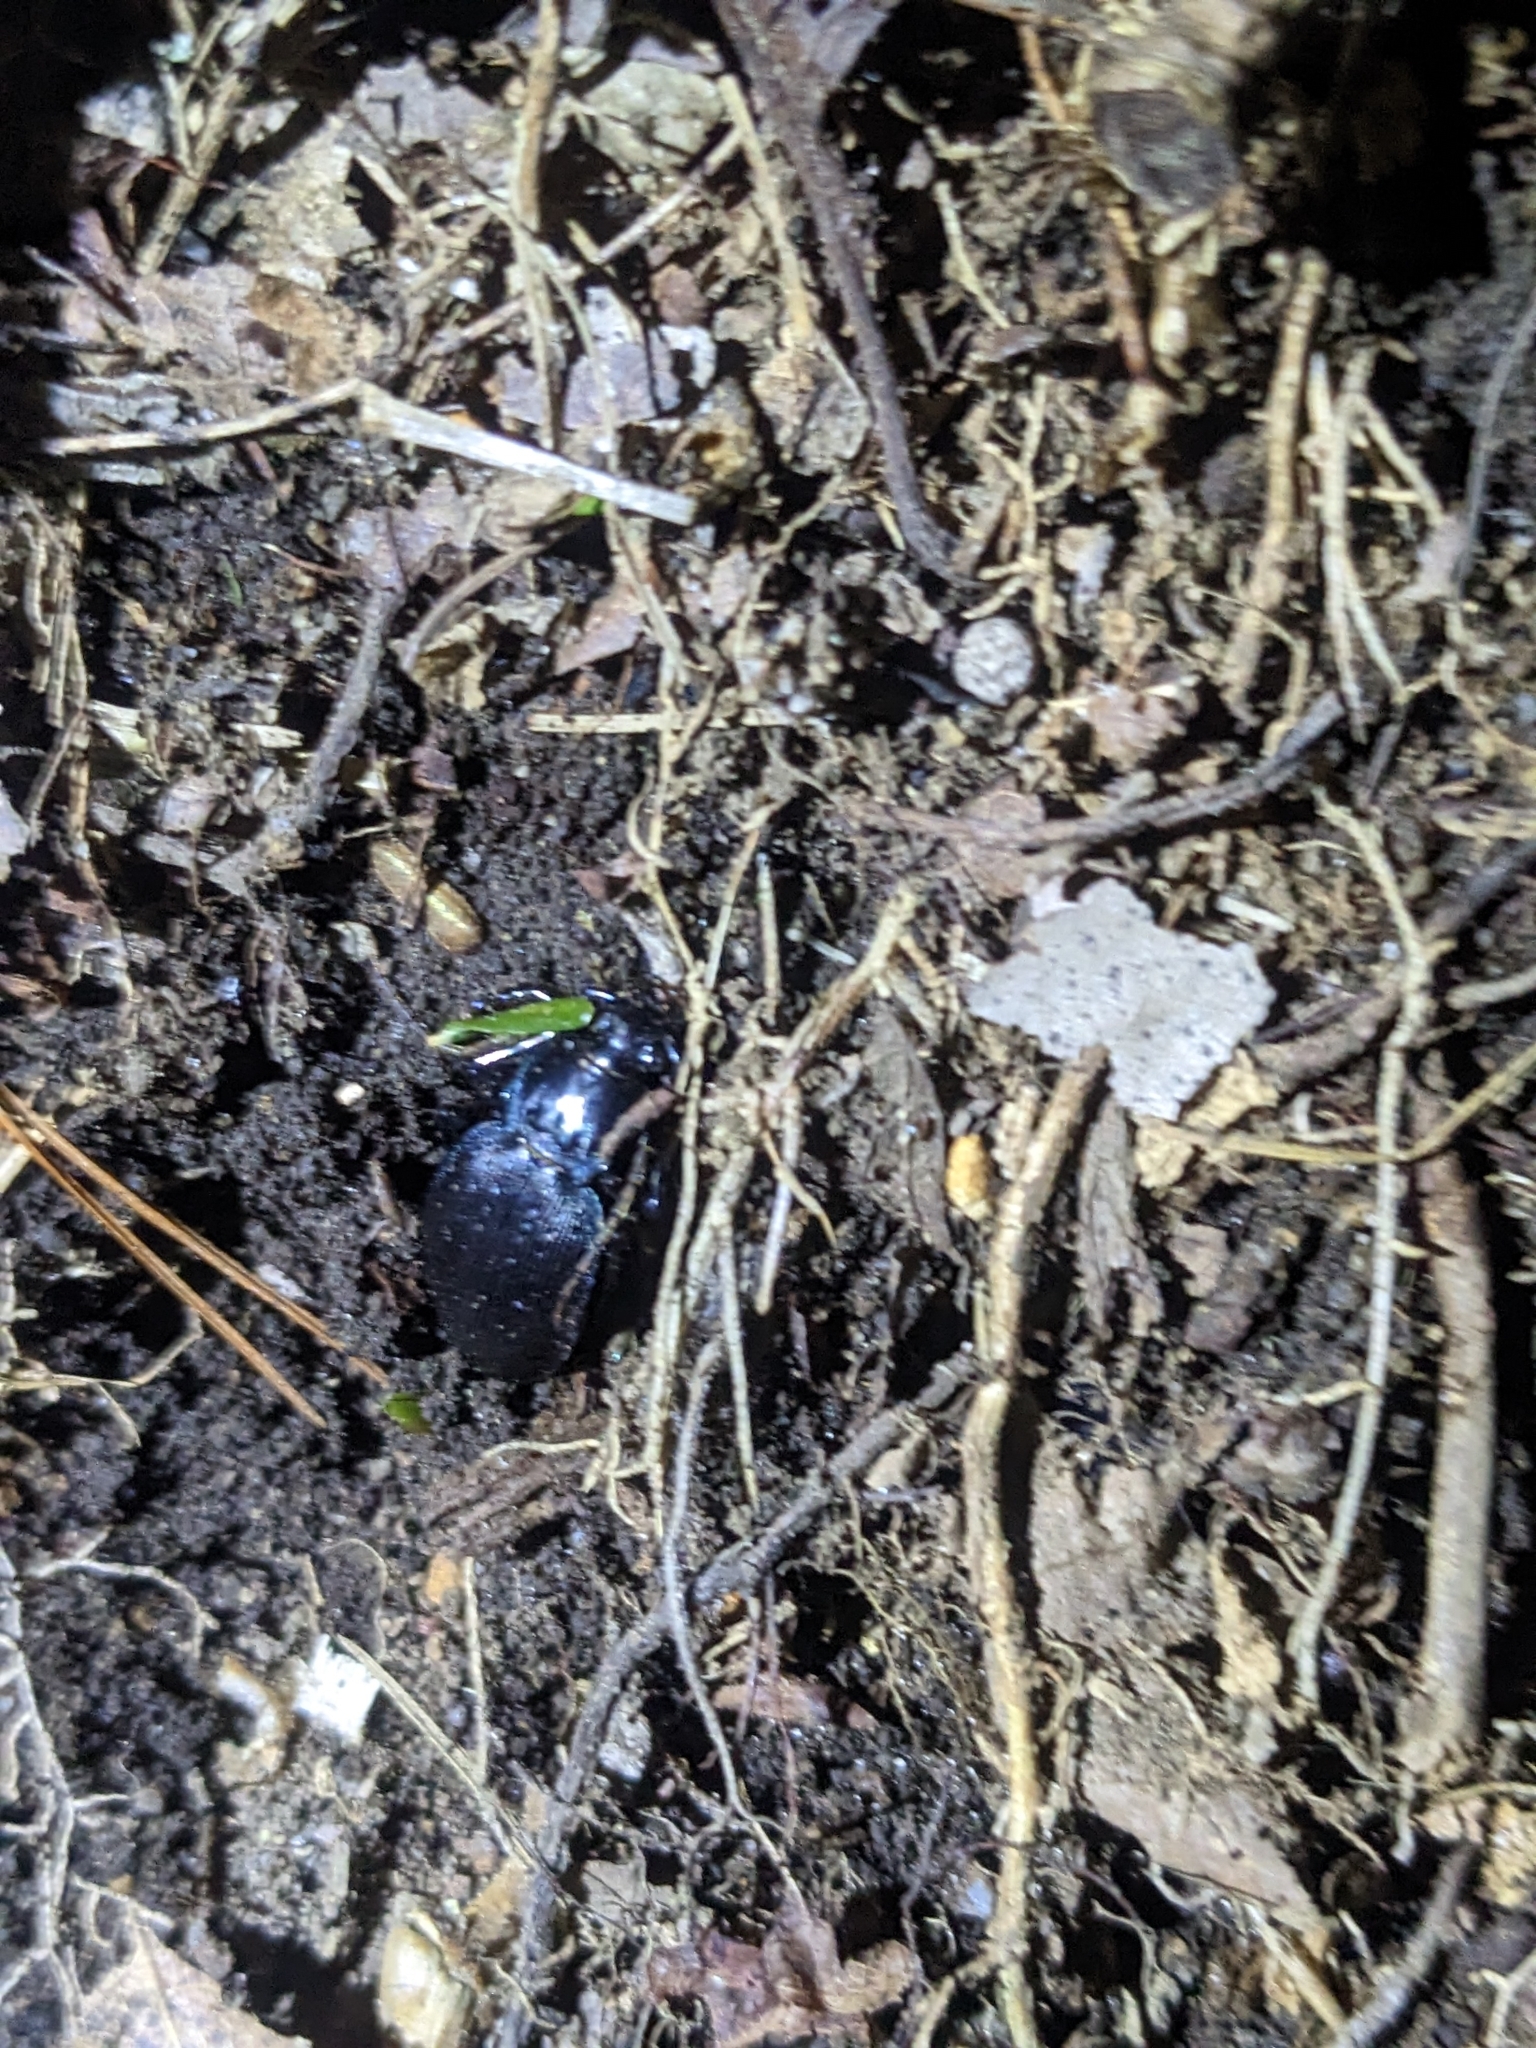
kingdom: Animalia
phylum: Arthropoda
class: Insecta
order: Coleoptera
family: Carabidae
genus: Carabus
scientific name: Carabus goryi
